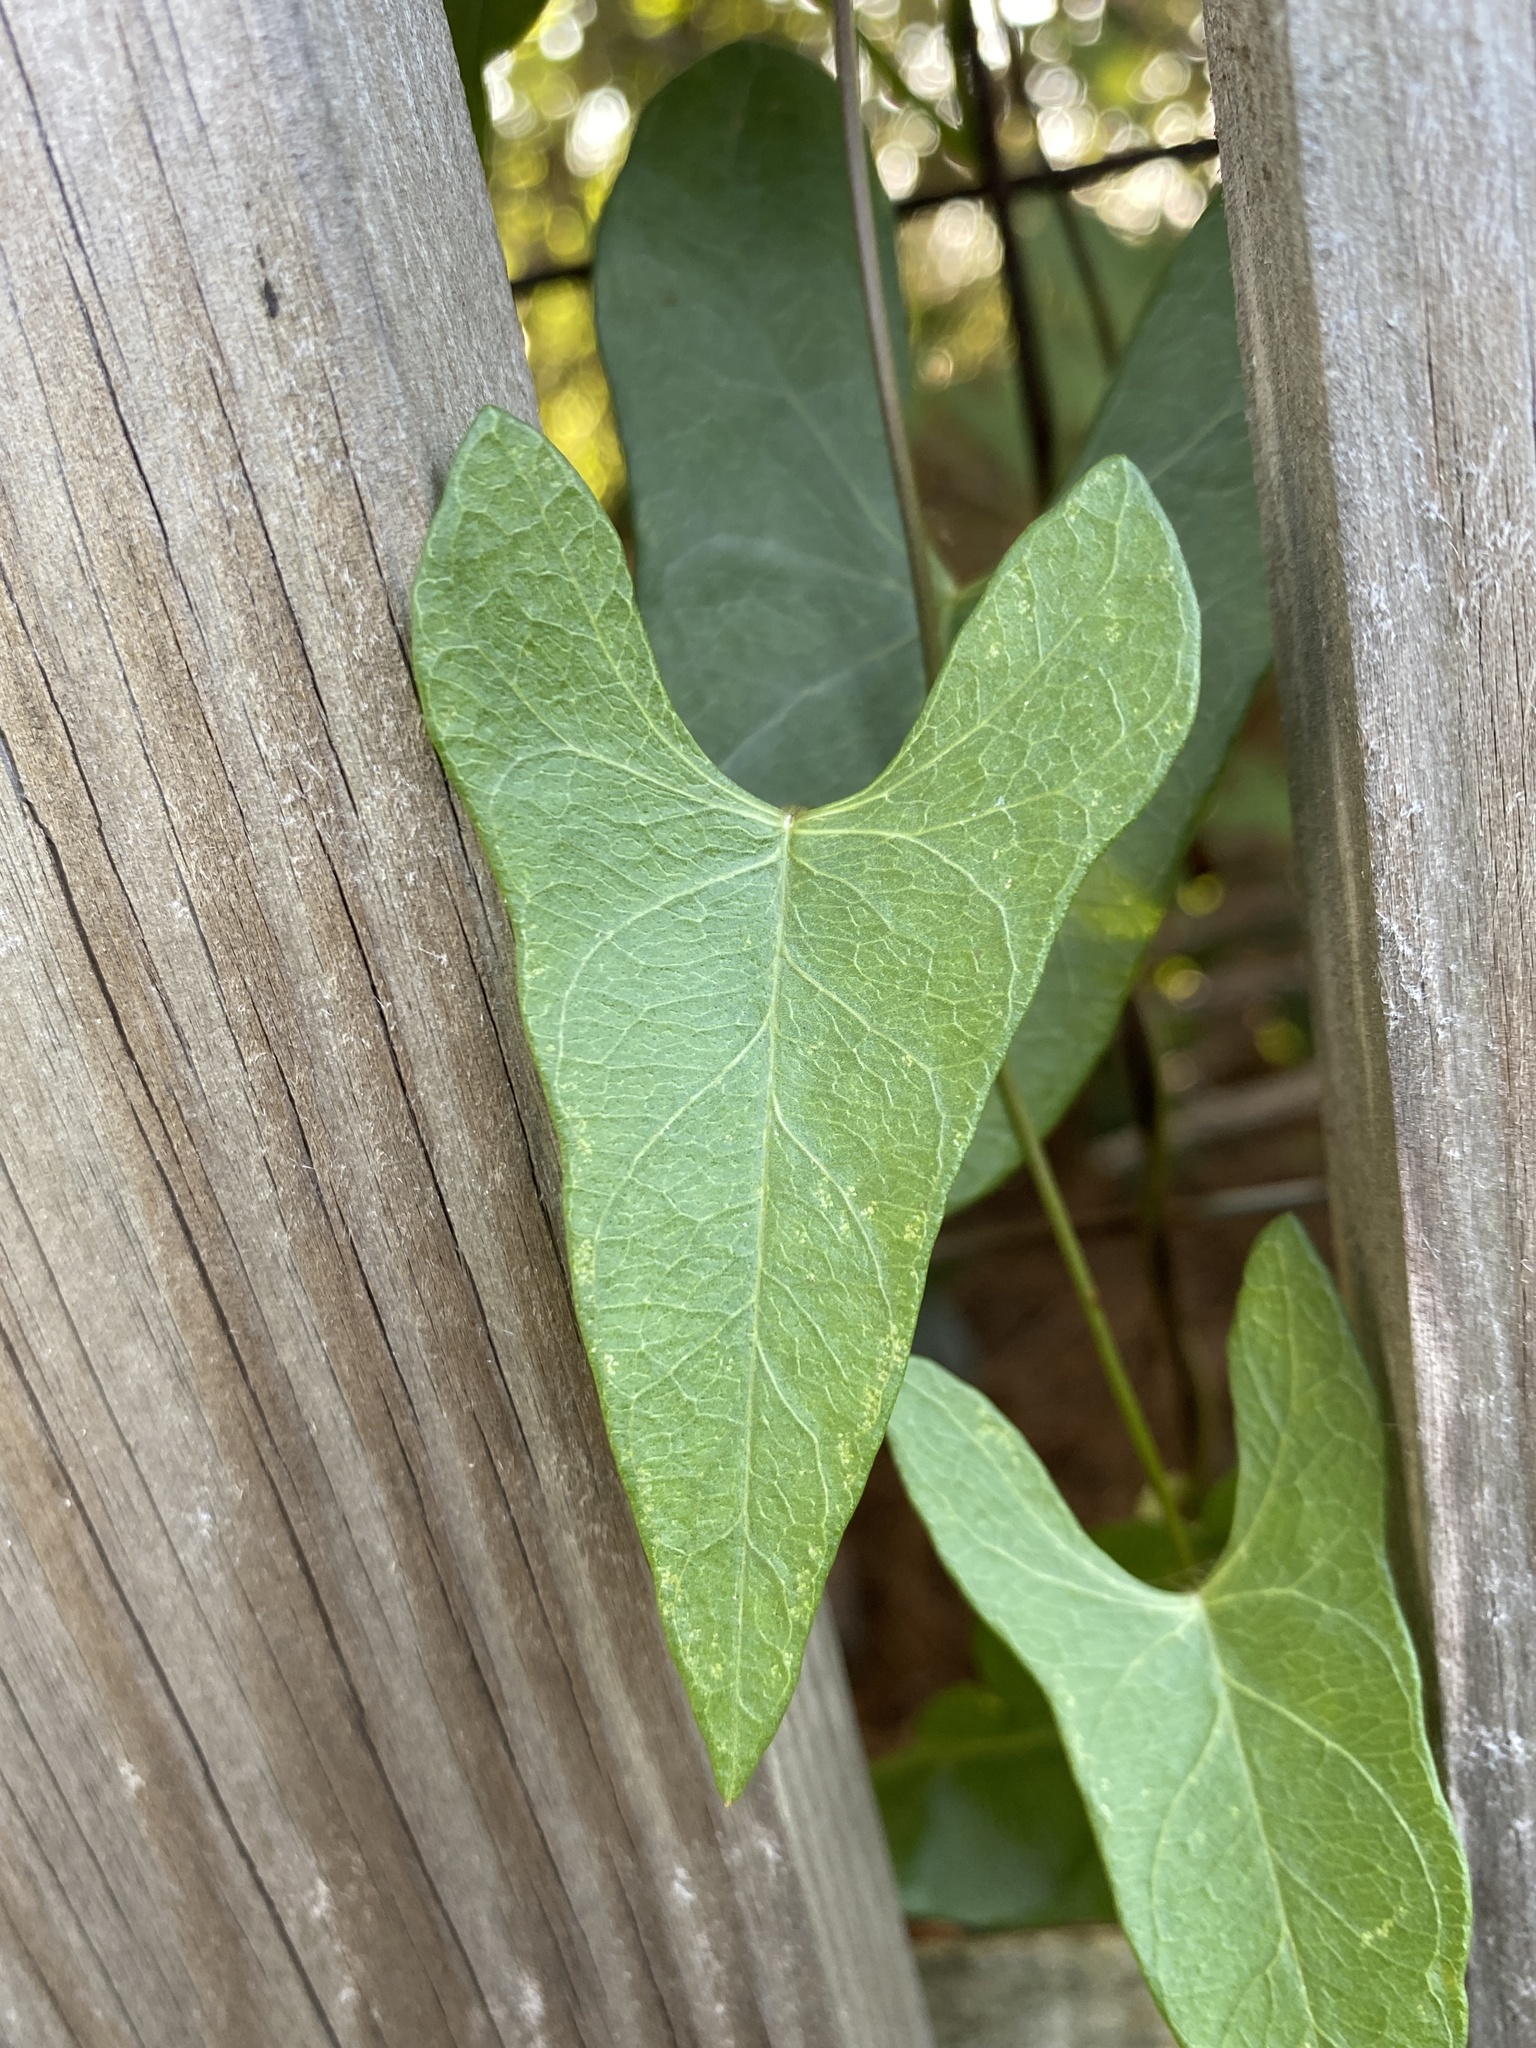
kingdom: Plantae
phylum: Tracheophyta
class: Magnoliopsida
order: Solanales
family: Convolvulaceae
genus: Ipomoea
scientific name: Ipomoea sagittata
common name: Saltmarsh morning glory
